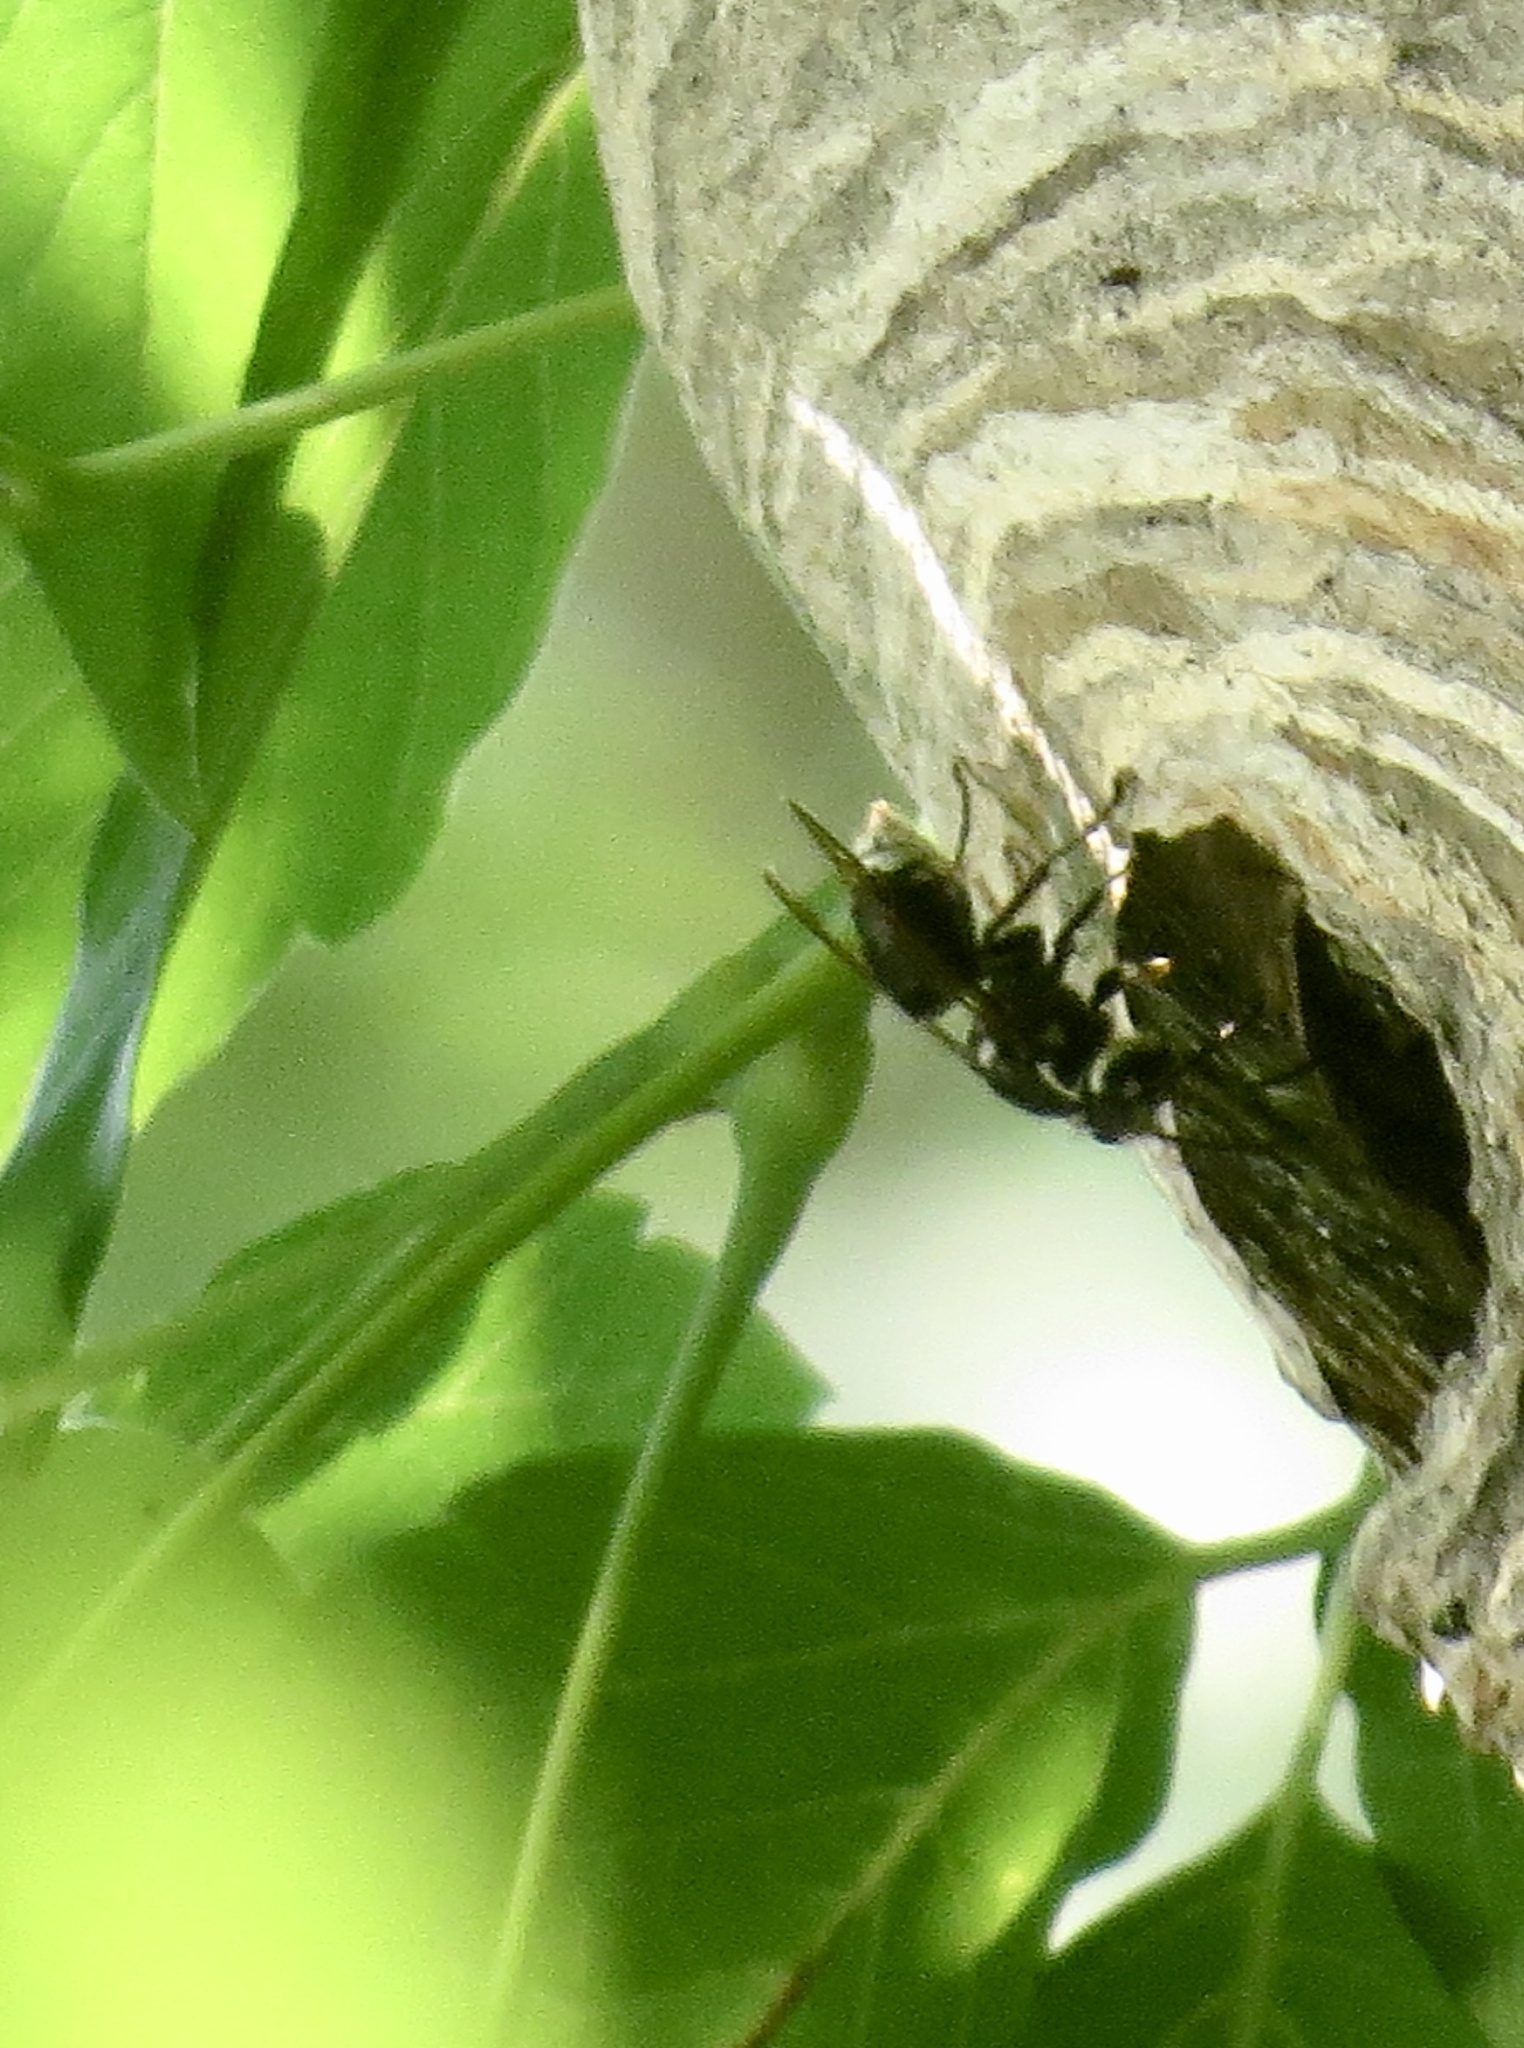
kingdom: Animalia
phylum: Arthropoda
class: Insecta
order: Hymenoptera
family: Vespidae
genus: Dolichovespula
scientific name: Dolichovespula maculata
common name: Bald-faced hornet
